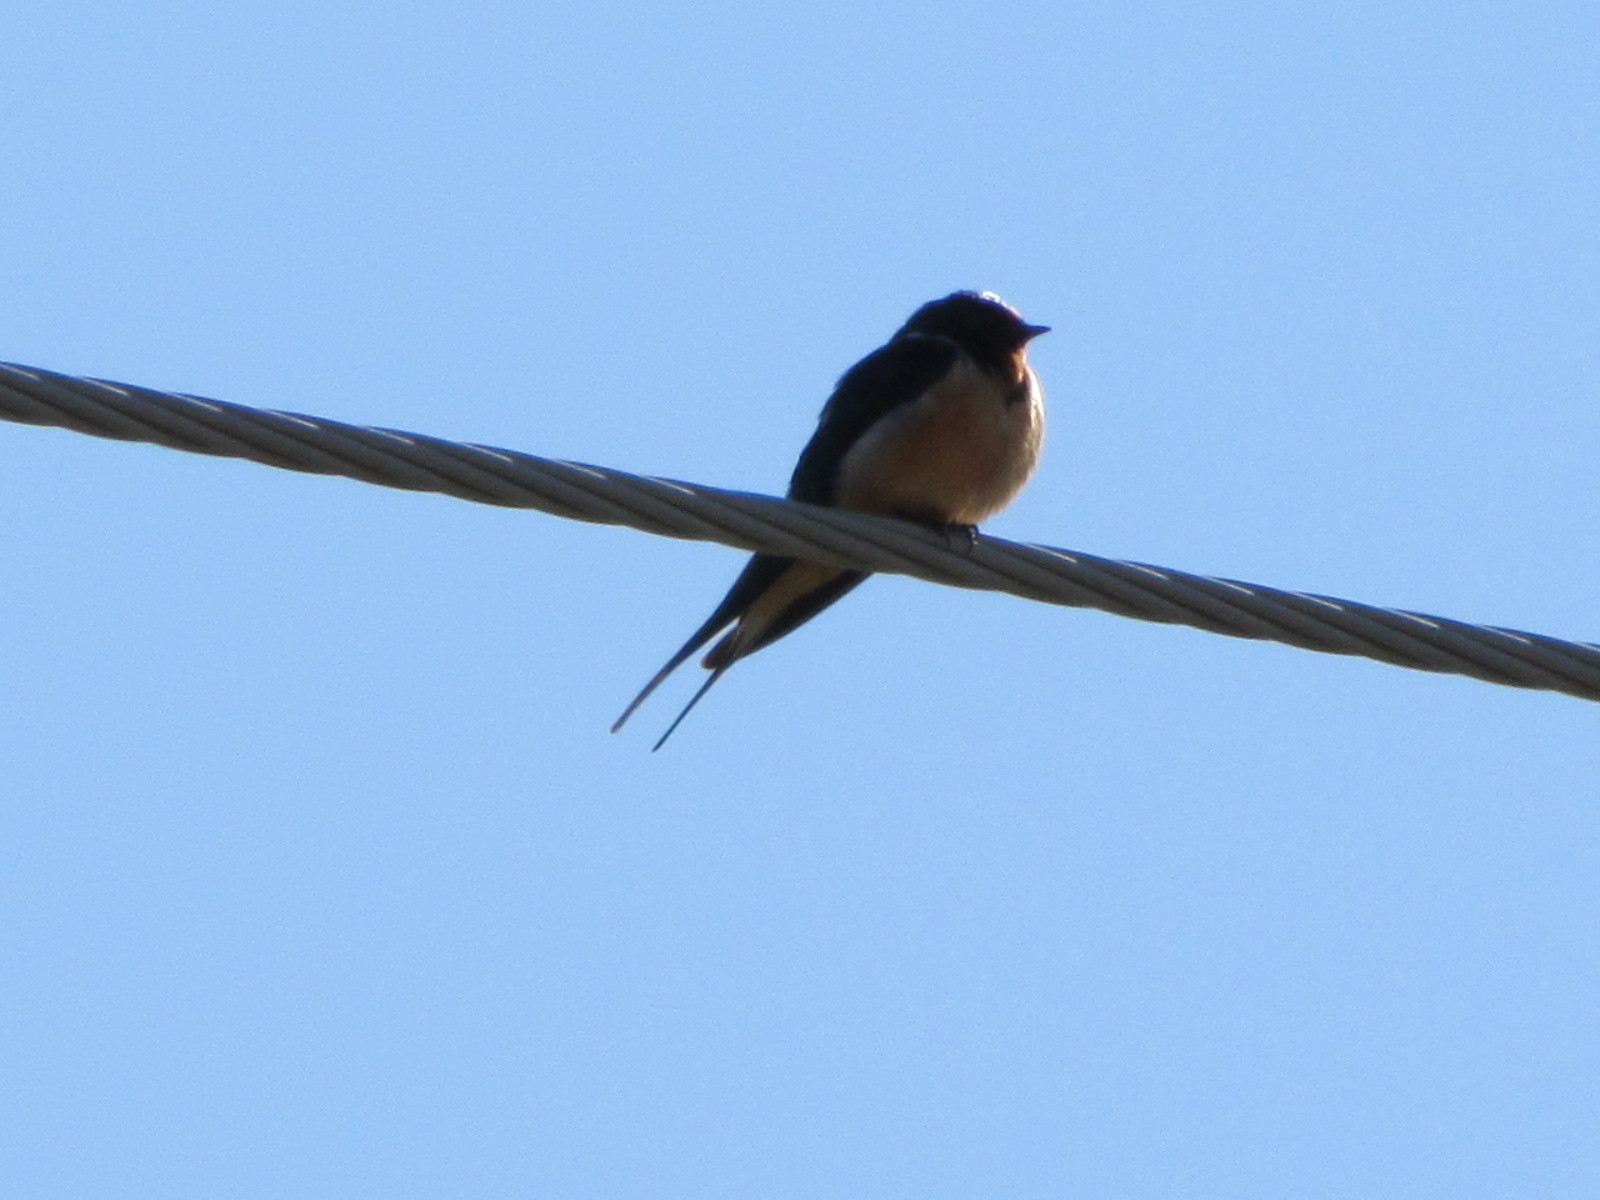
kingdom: Animalia
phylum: Chordata
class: Aves
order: Passeriformes
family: Hirundinidae
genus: Hirundo
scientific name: Hirundo rustica
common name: Barn swallow
